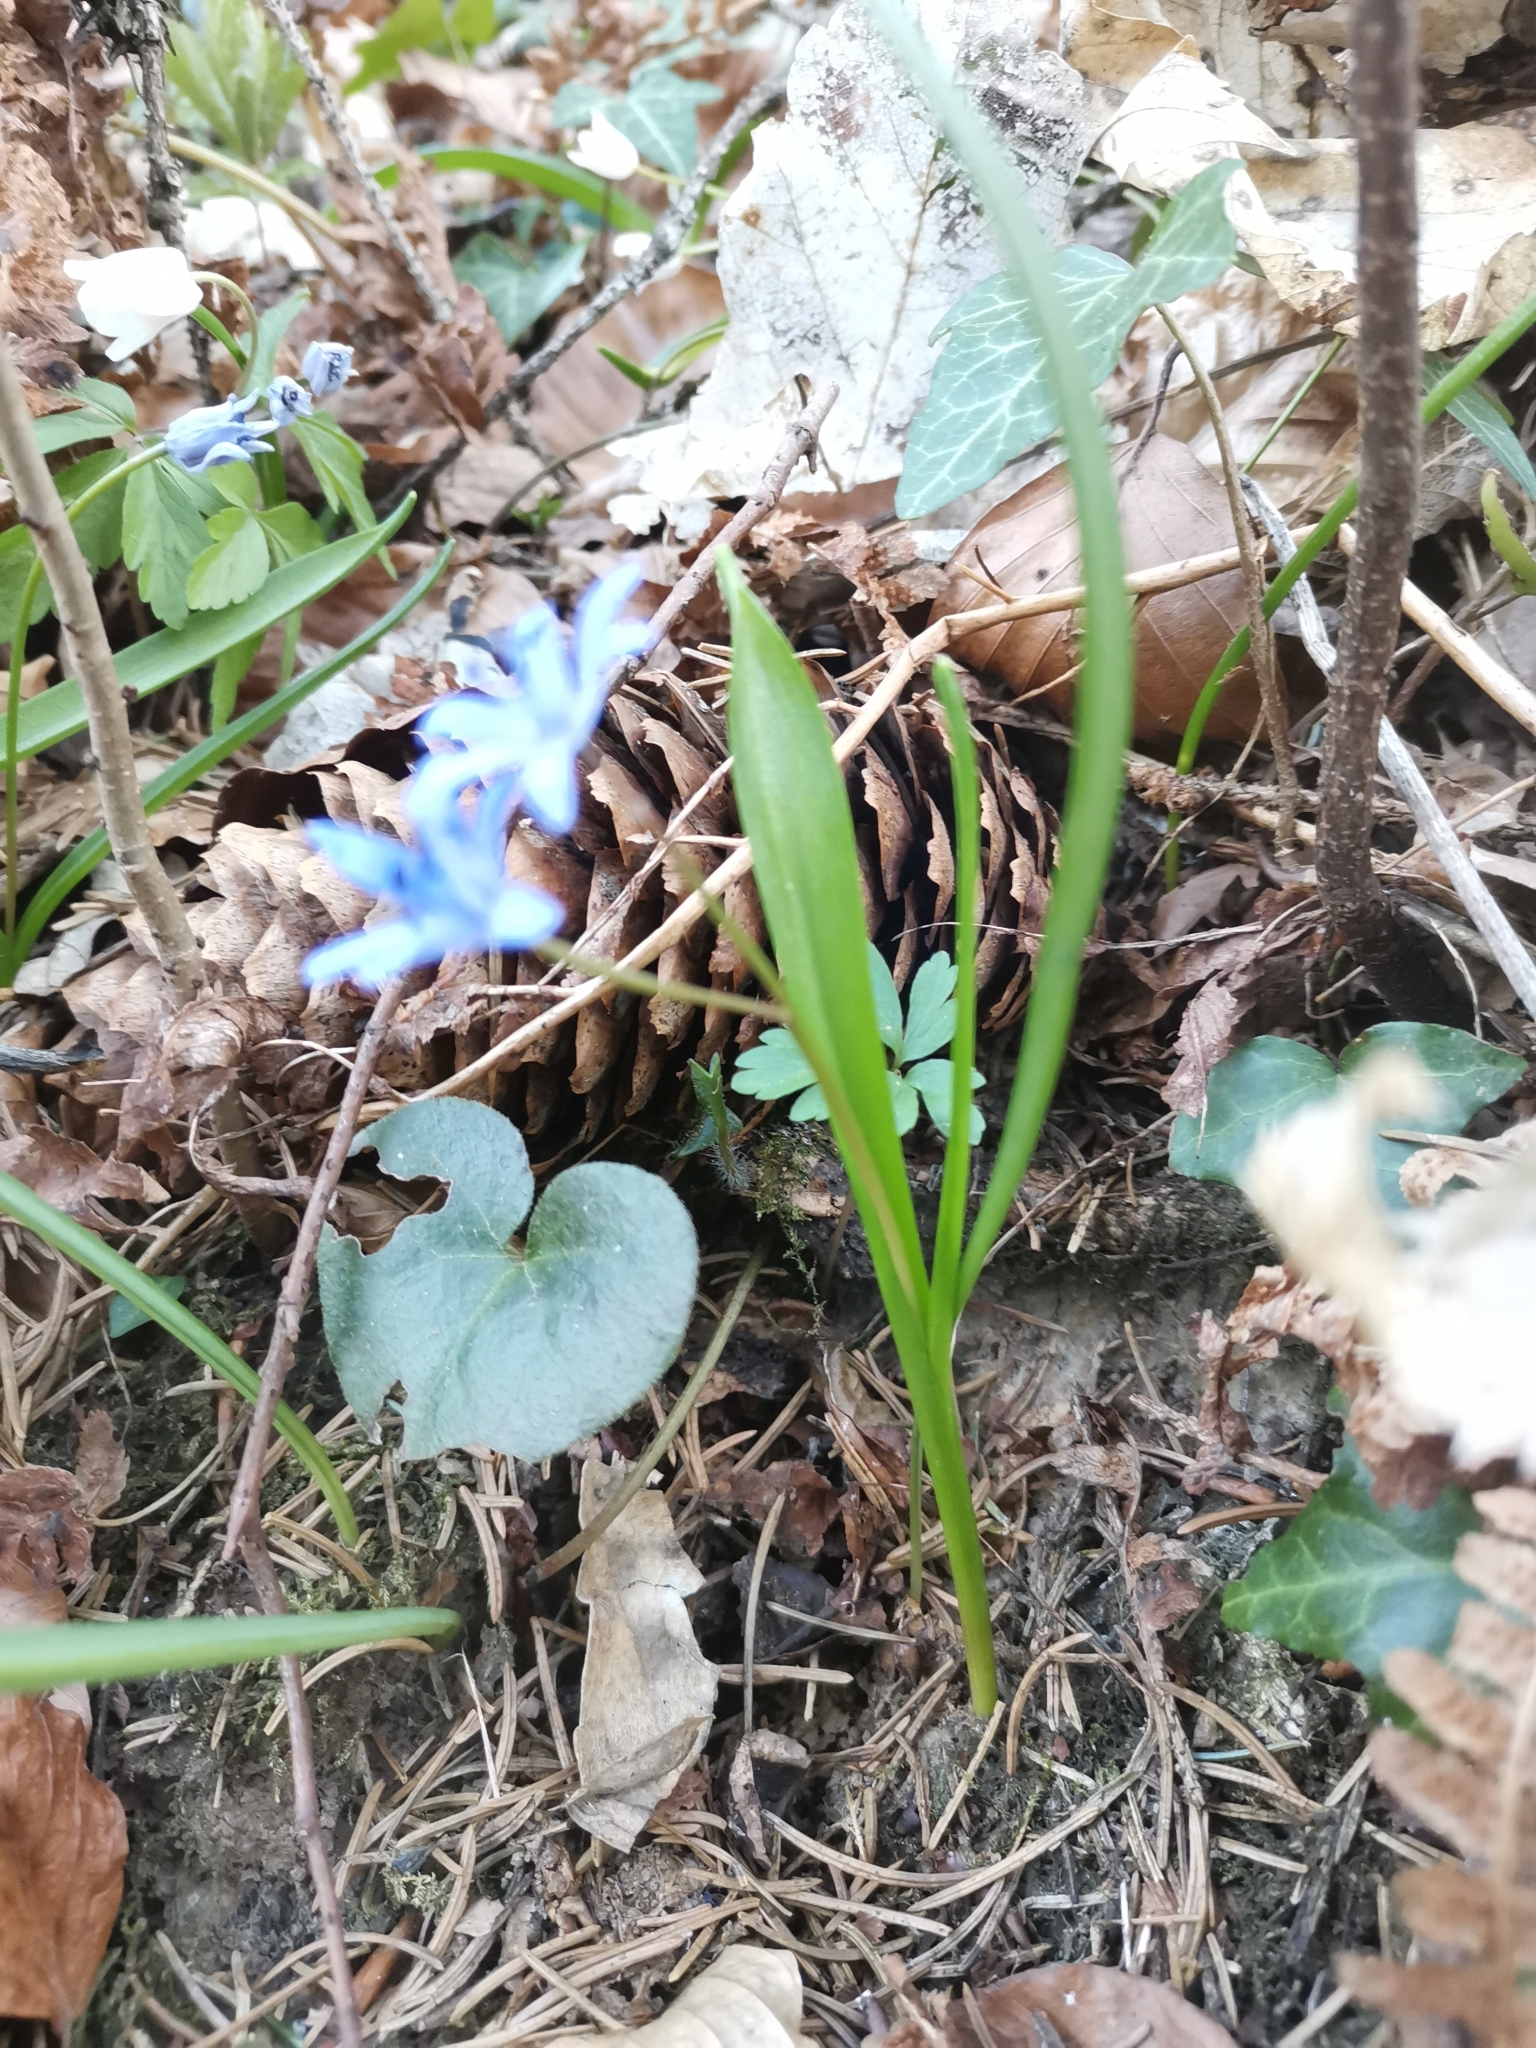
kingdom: Plantae
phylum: Tracheophyta
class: Liliopsida
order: Asparagales
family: Asparagaceae
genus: Scilla
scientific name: Scilla bifolia
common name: Alpine squill
